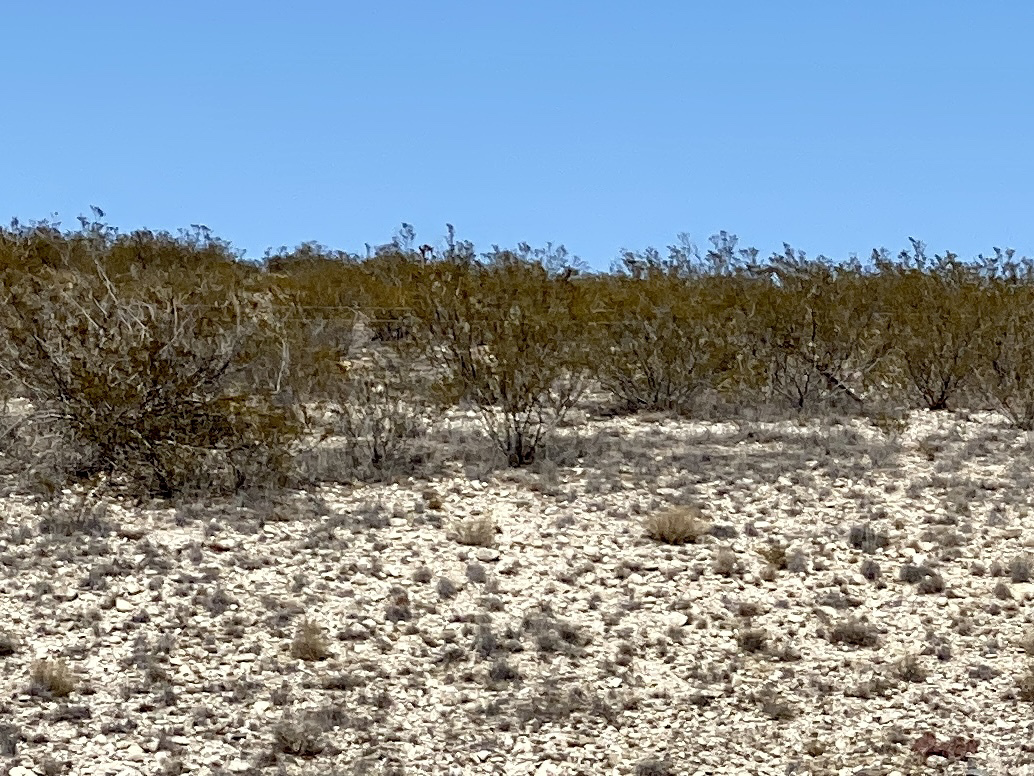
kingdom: Plantae
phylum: Tracheophyta
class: Magnoliopsida
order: Zygophyllales
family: Zygophyllaceae
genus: Larrea
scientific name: Larrea tridentata
